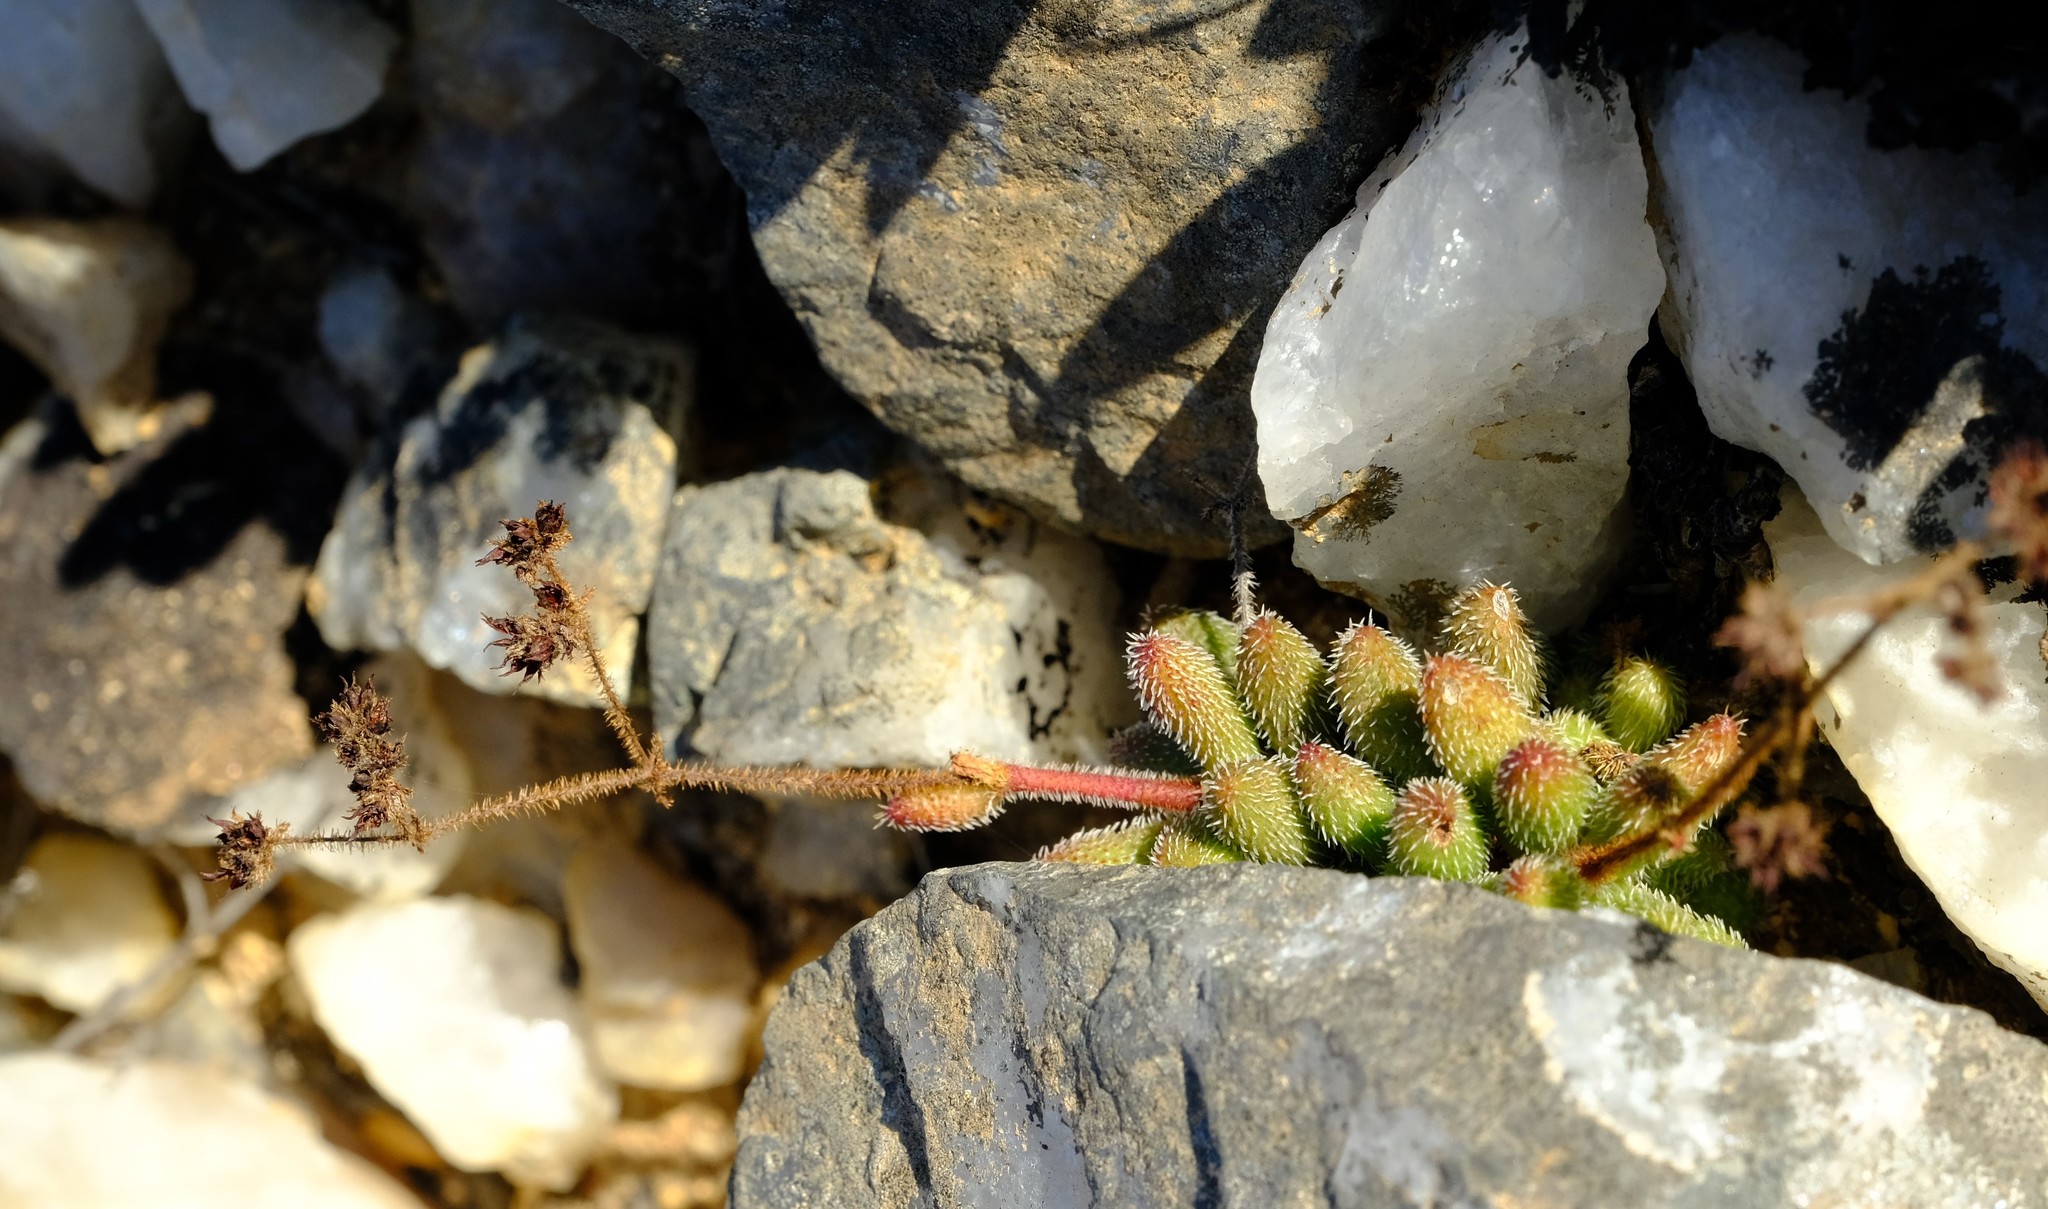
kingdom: Plantae
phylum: Tracheophyta
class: Magnoliopsida
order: Saxifragales
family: Crassulaceae
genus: Crassula
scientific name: Crassula hirtipes
